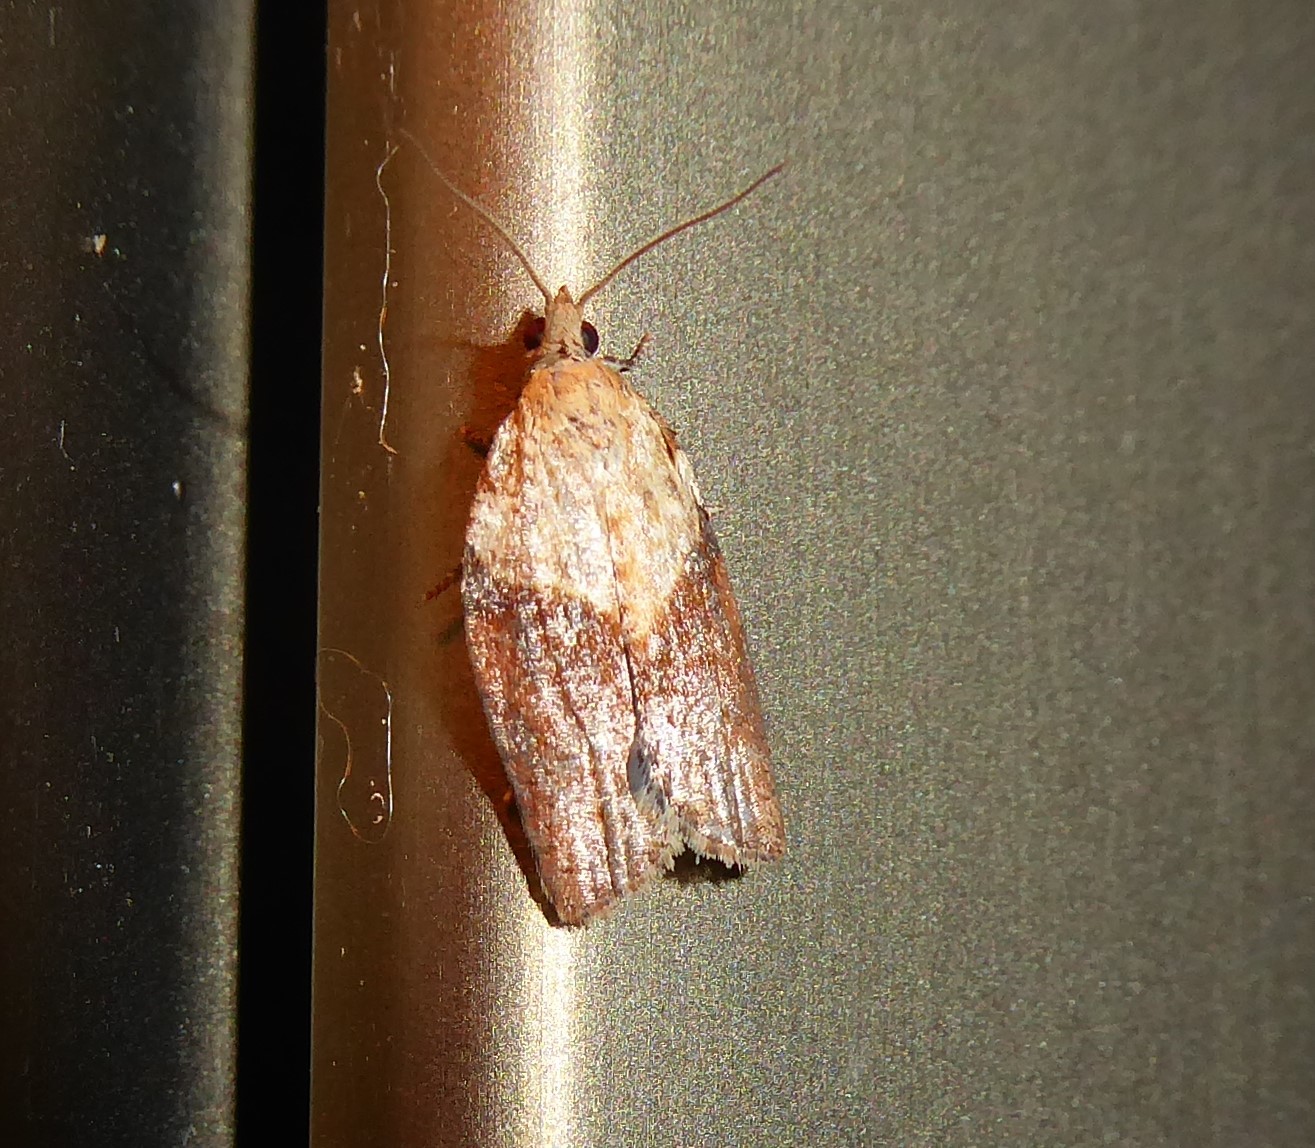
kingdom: Animalia
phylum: Arthropoda
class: Insecta
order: Lepidoptera
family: Tortricidae
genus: Epiphyas
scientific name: Epiphyas postvittana
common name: Light brown apple moth
